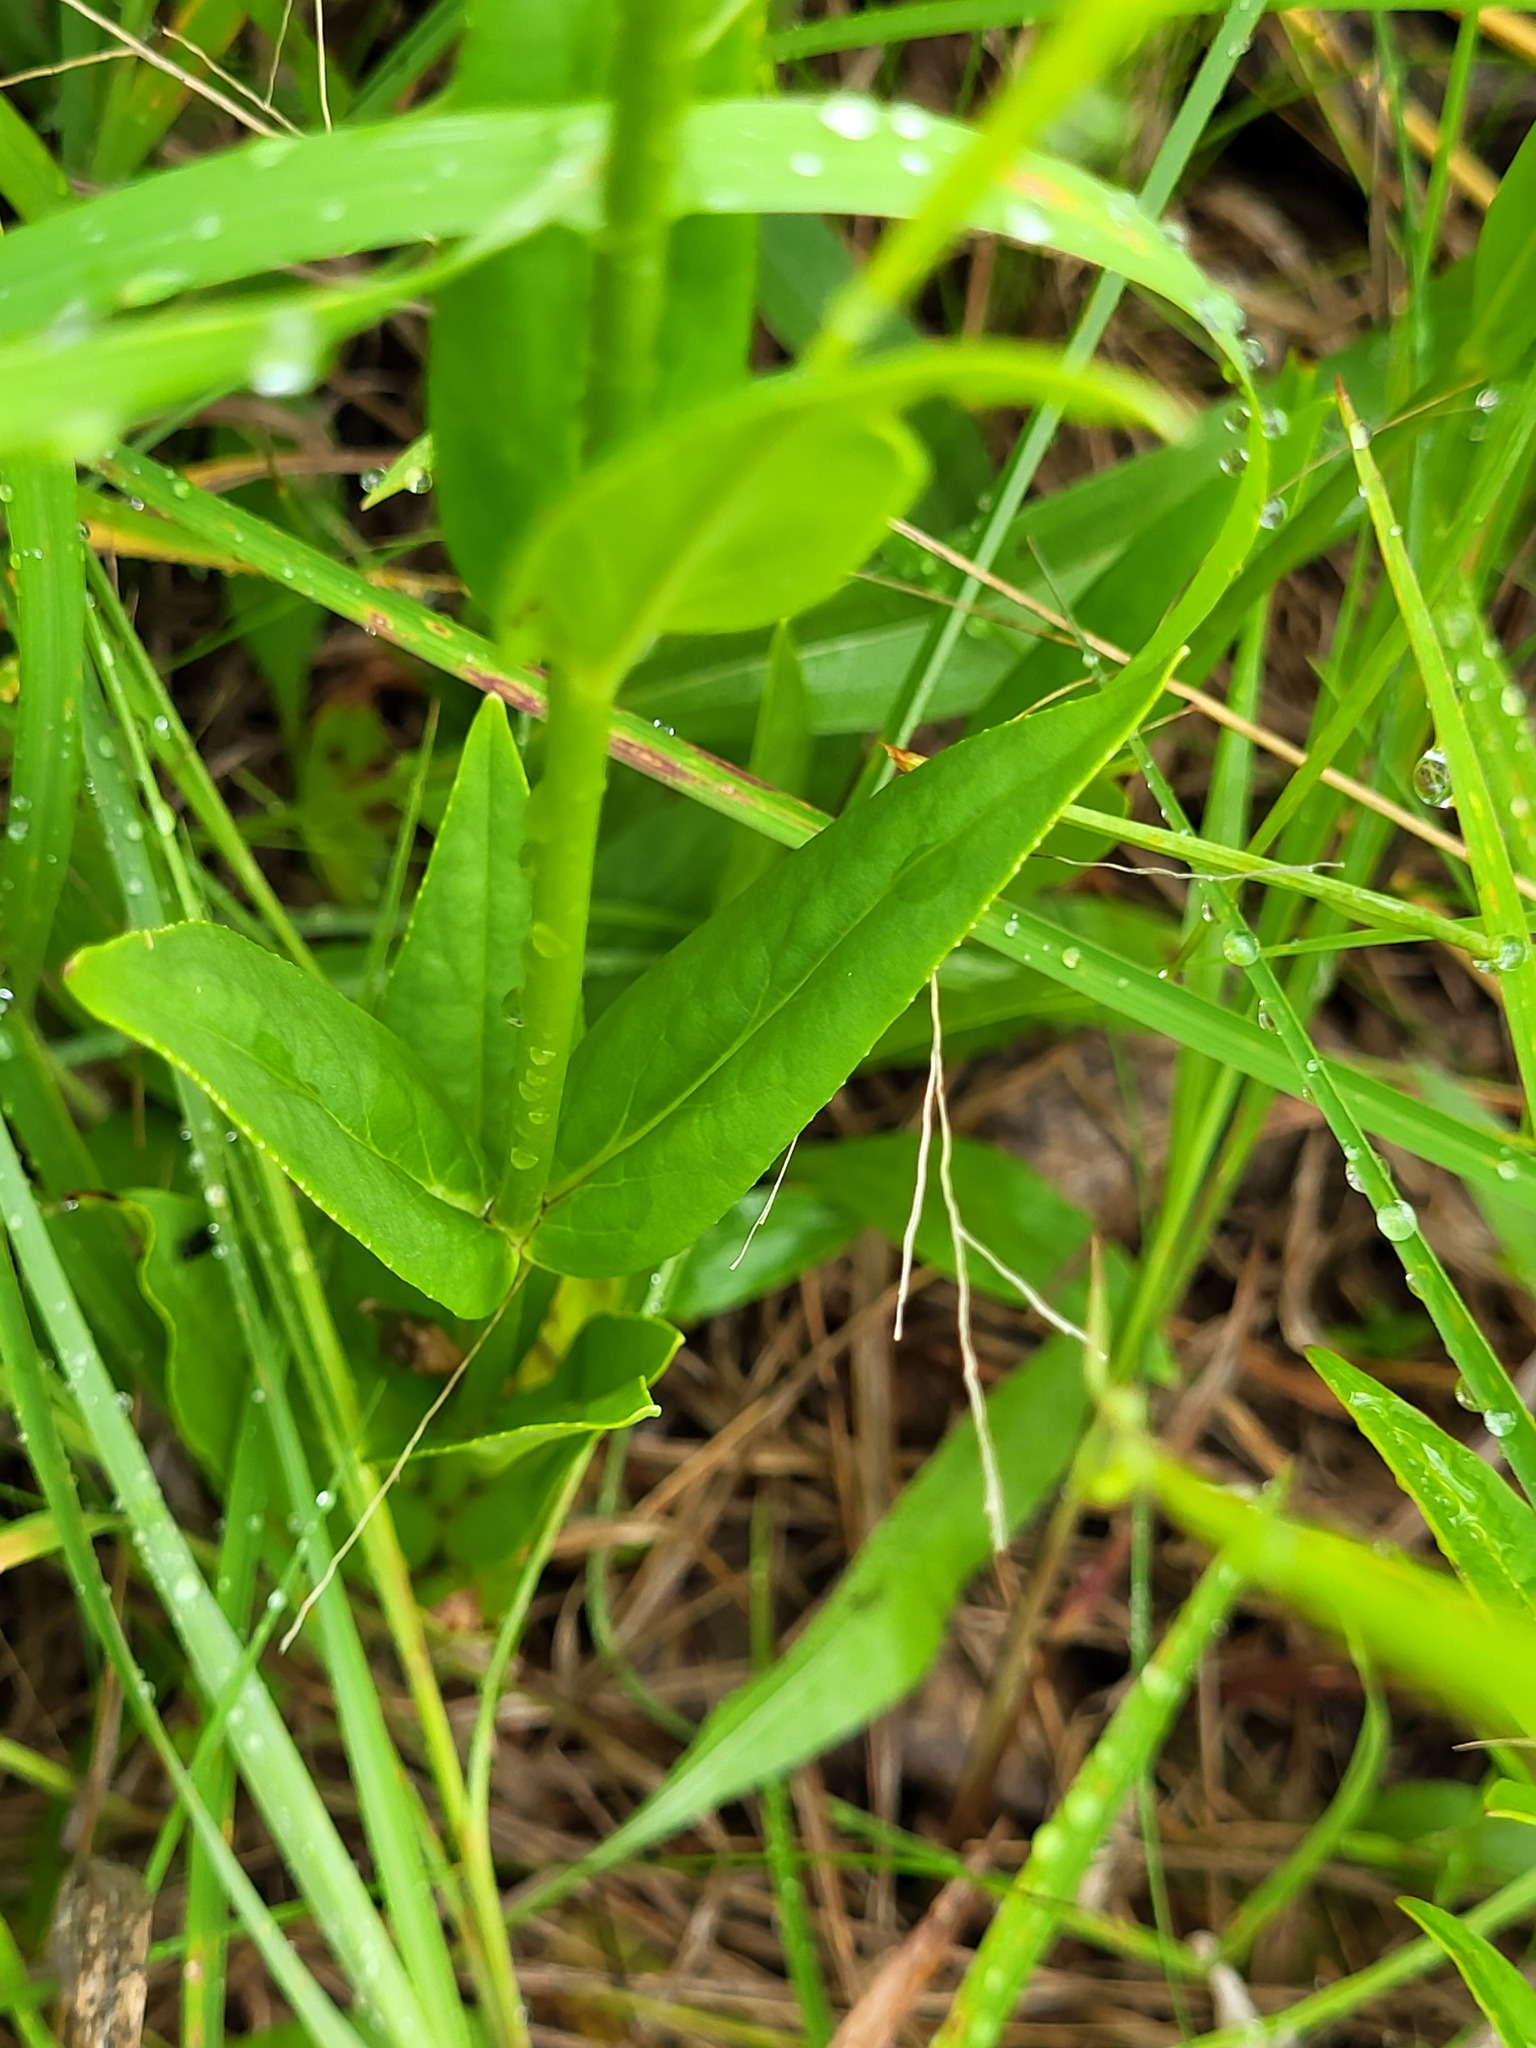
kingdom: Plantae
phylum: Tracheophyta
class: Magnoliopsida
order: Lamiales
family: Plantaginaceae
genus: Penstemon
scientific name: Penstemon digitalis
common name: Foxglove beardtongue
